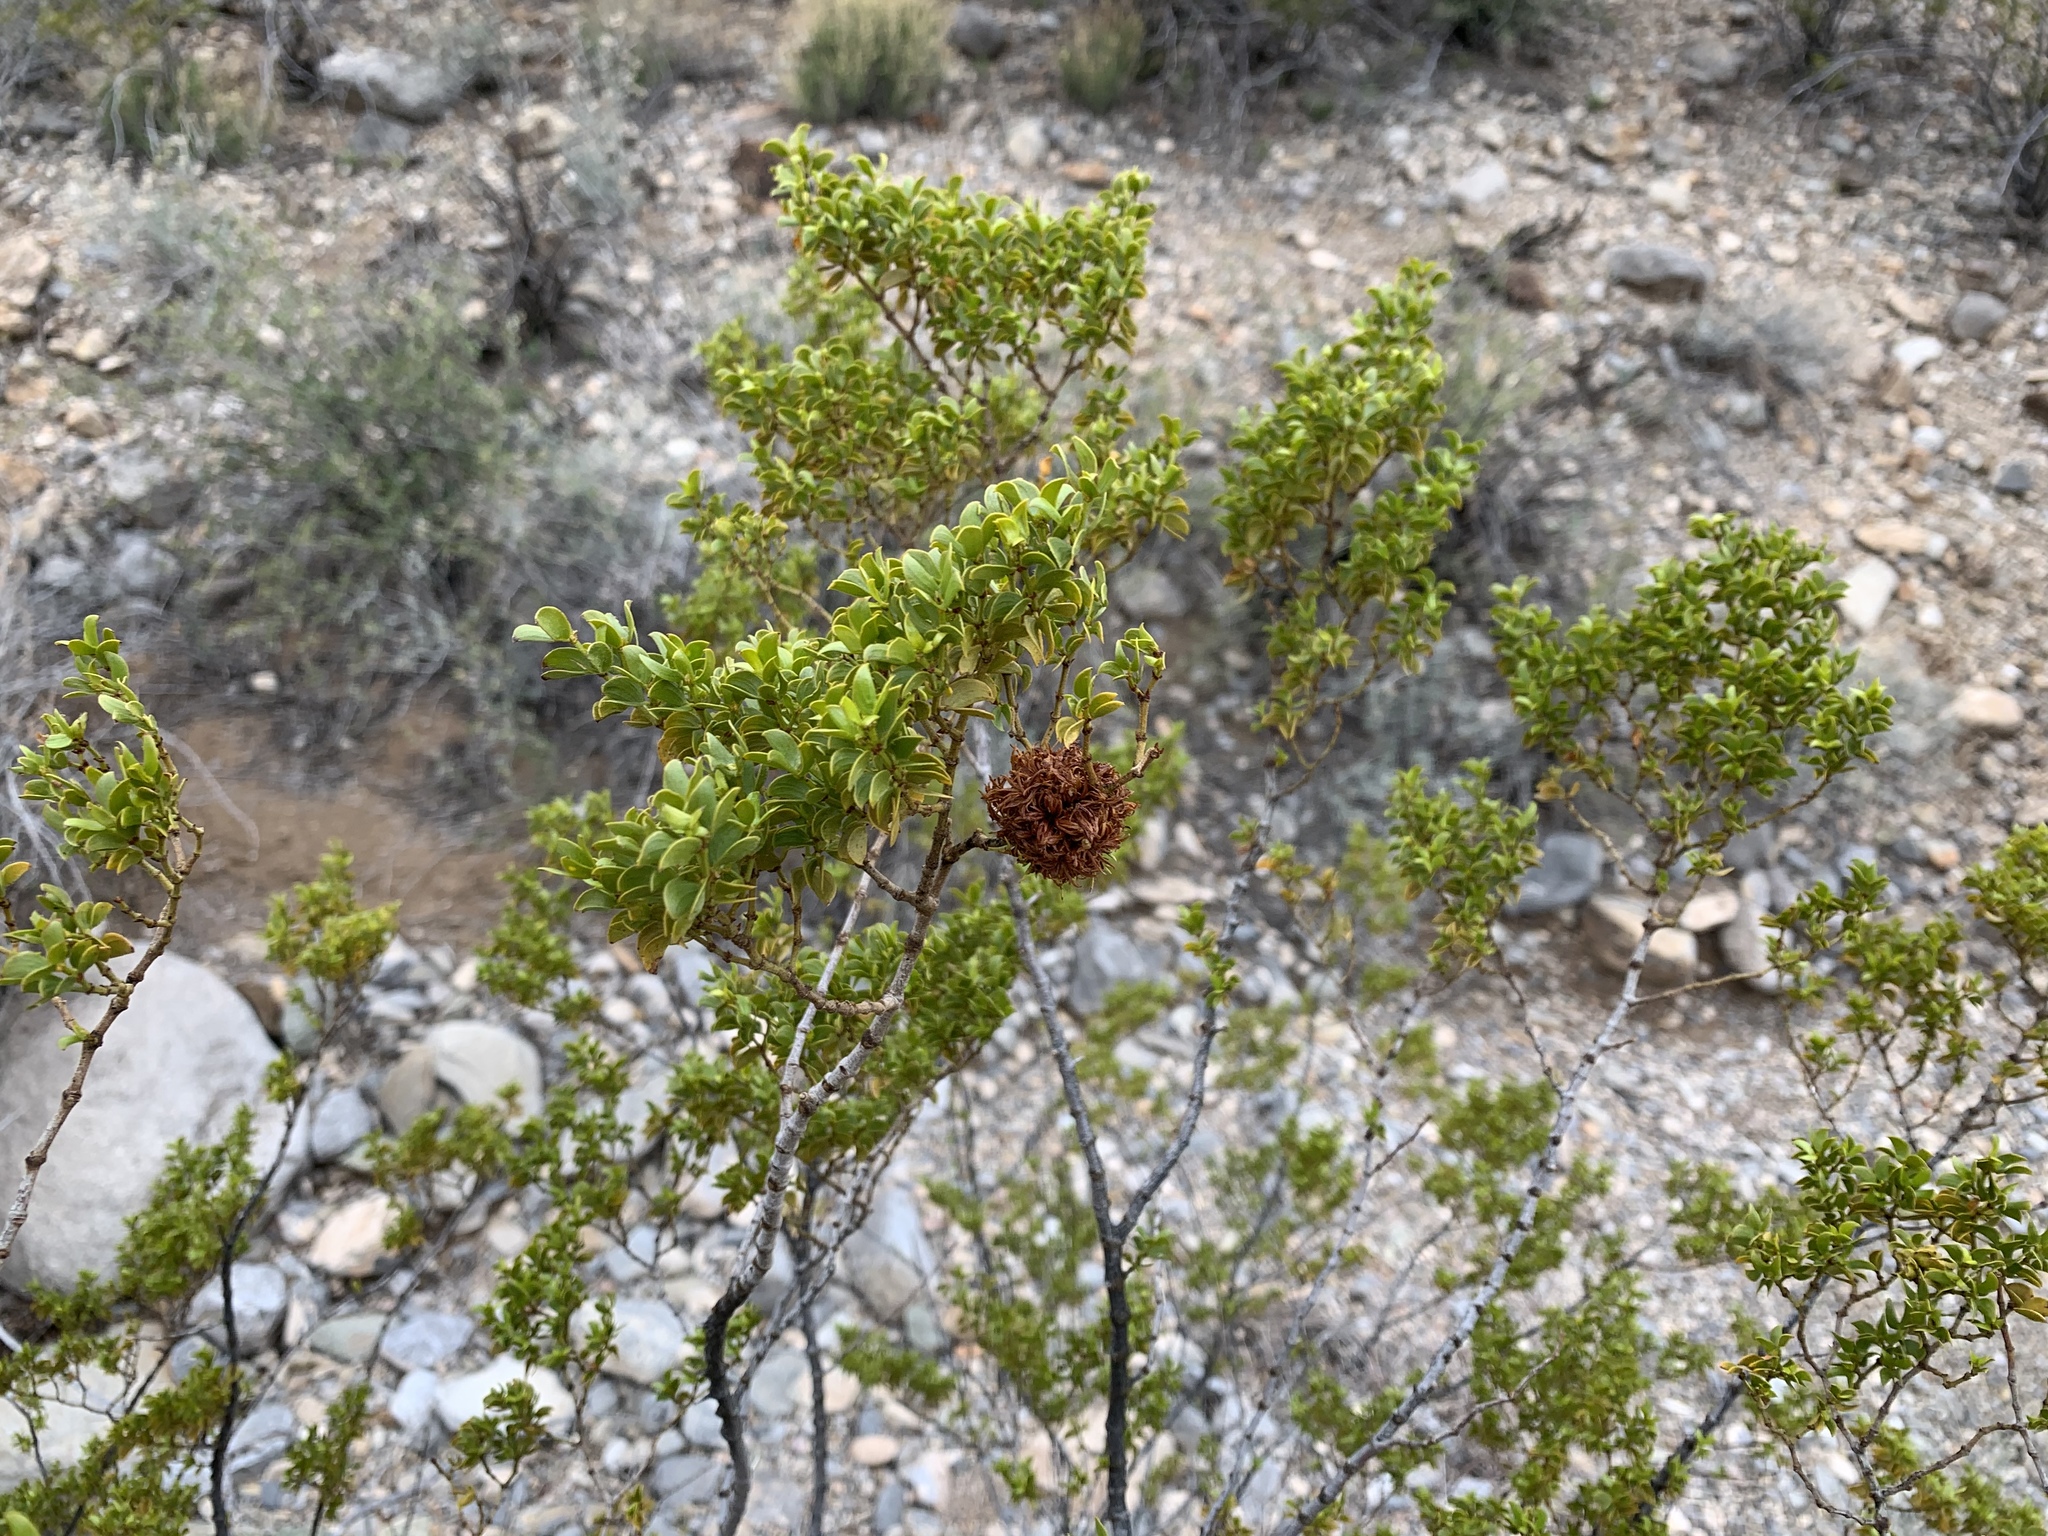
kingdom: Animalia
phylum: Arthropoda
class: Insecta
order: Diptera
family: Cecidomyiidae
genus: Asphondylia
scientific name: Asphondylia auripila
